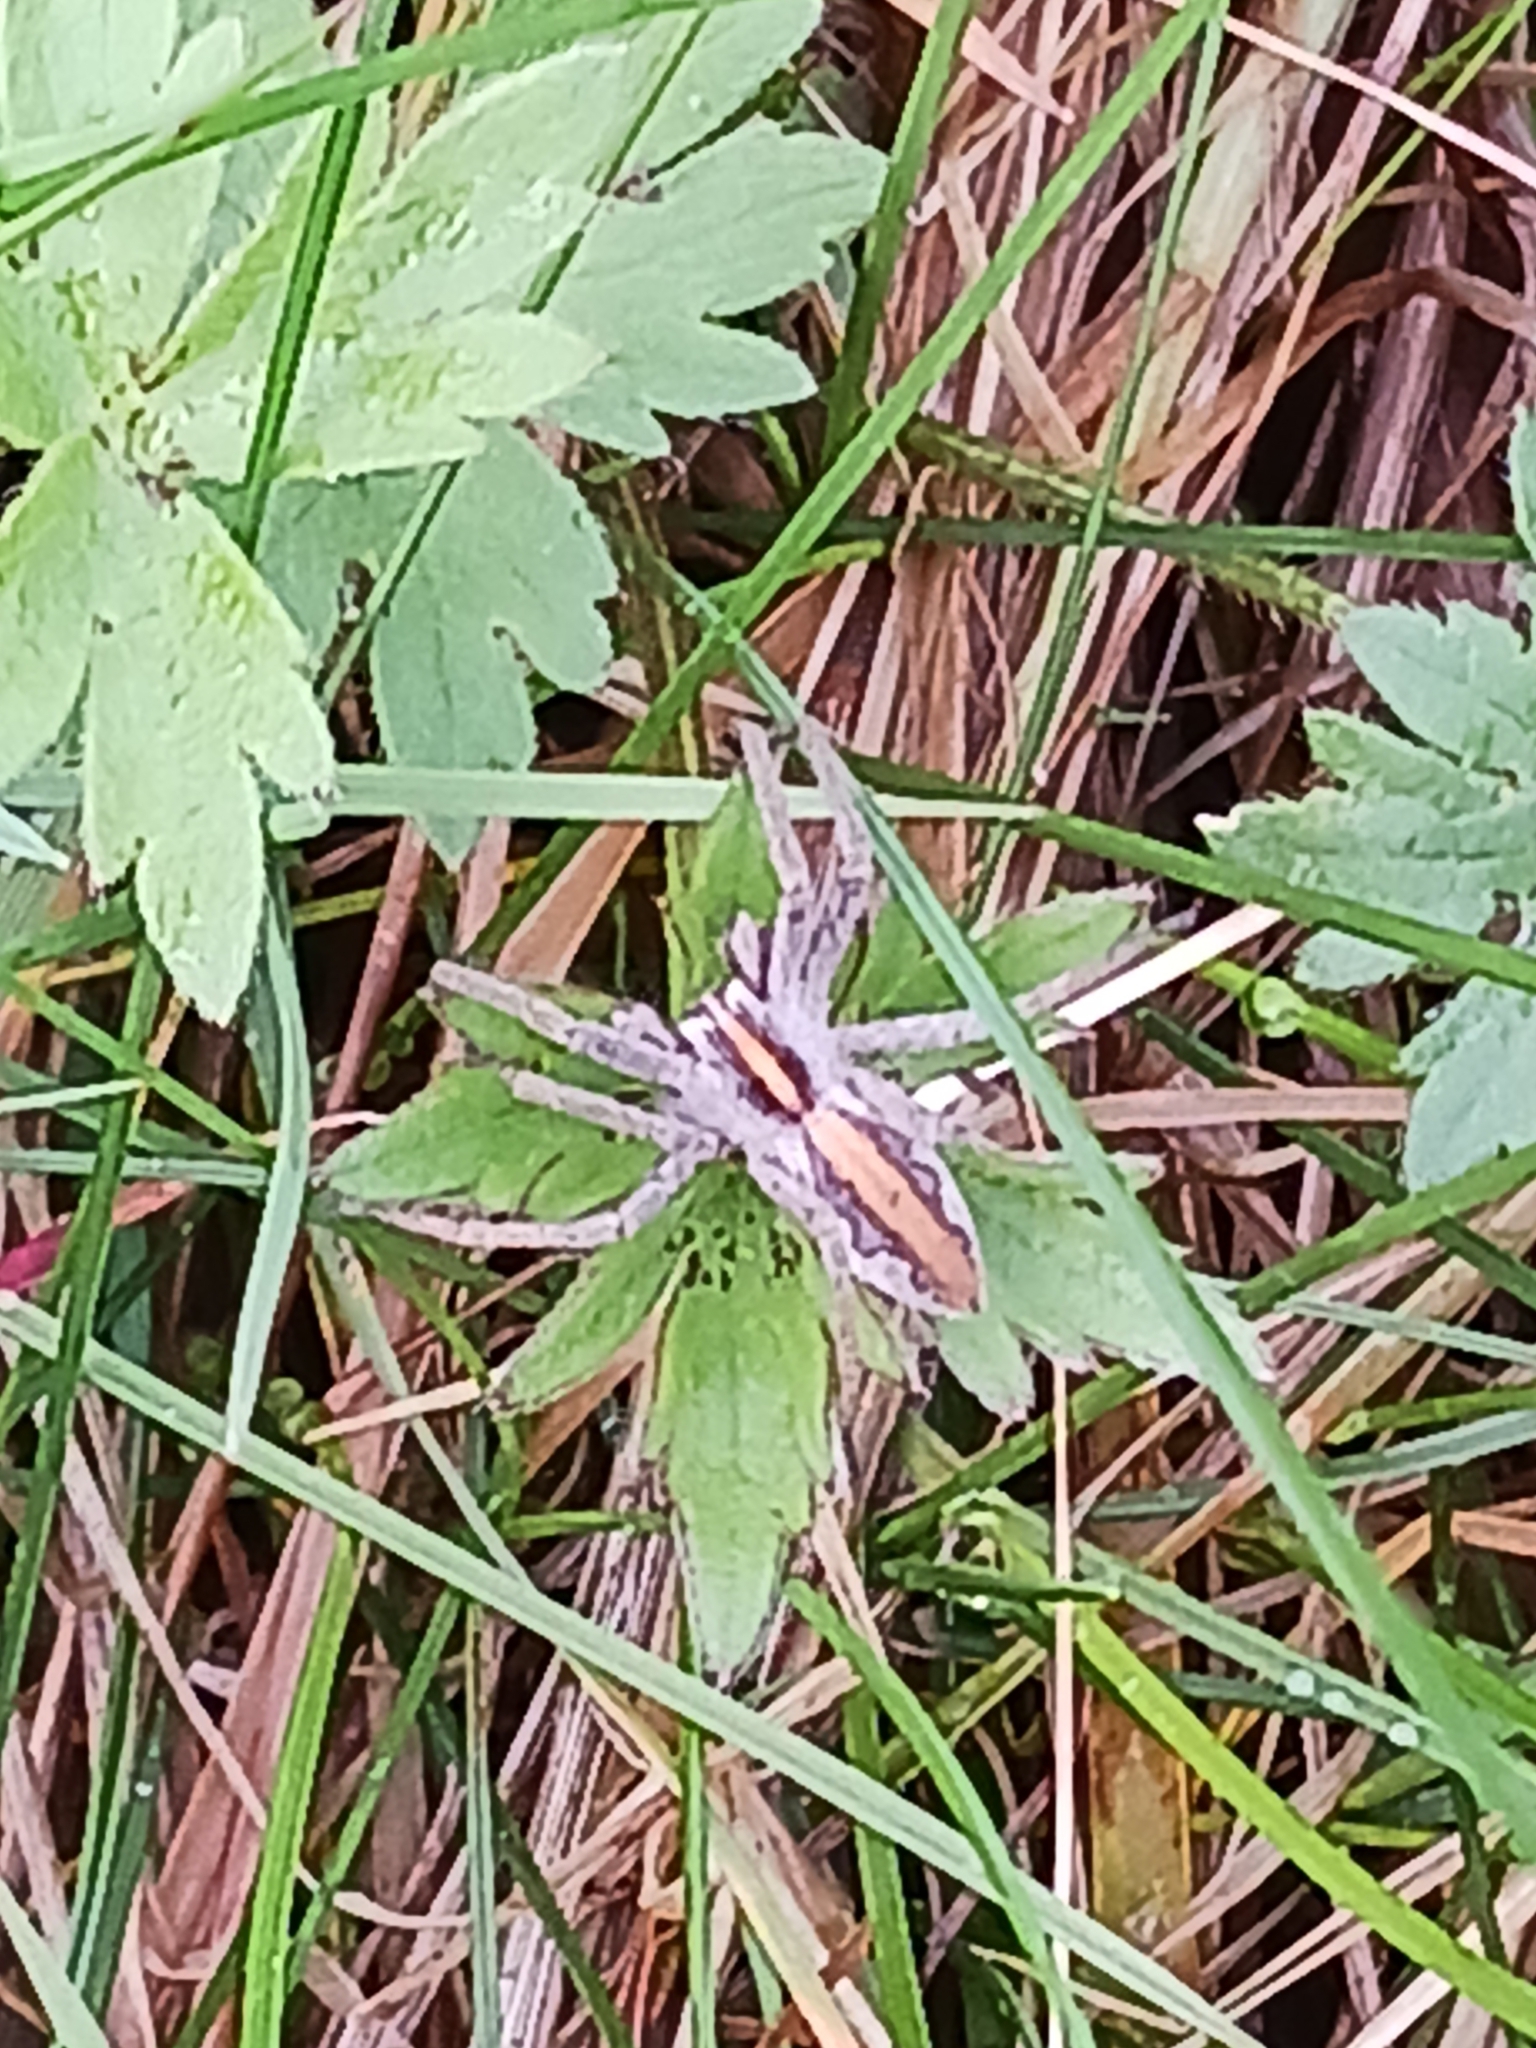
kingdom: Animalia
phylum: Arthropoda
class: Arachnida
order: Araneae
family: Pisauridae
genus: Pisaura
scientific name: Pisaura mirabilis
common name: Tent spider
